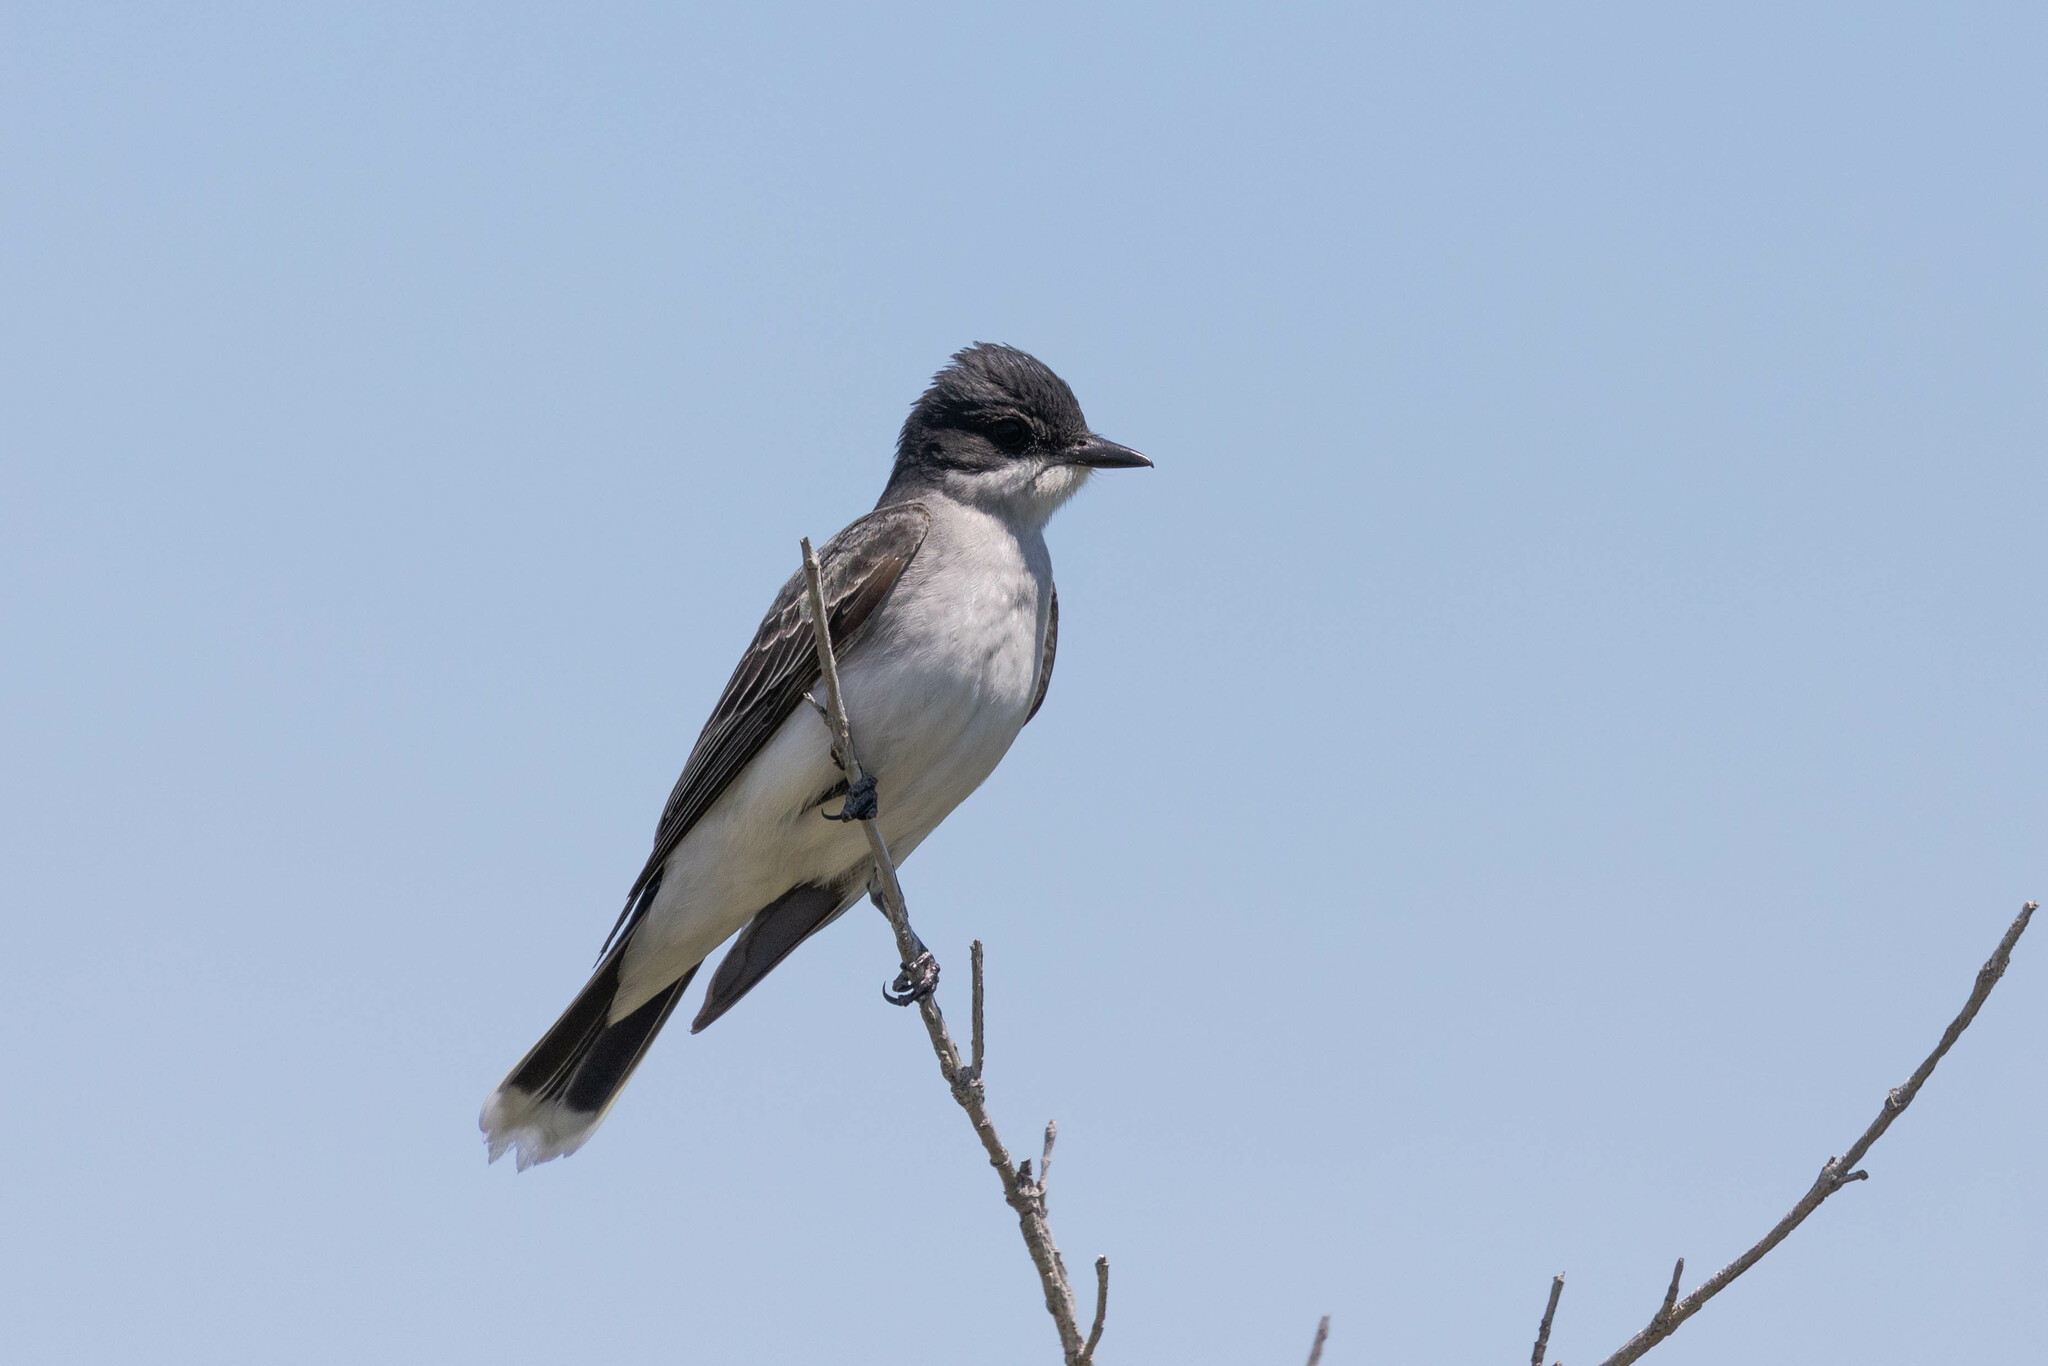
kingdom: Animalia
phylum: Chordata
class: Aves
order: Passeriformes
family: Tyrannidae
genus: Tyrannus
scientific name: Tyrannus tyrannus
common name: Eastern kingbird
